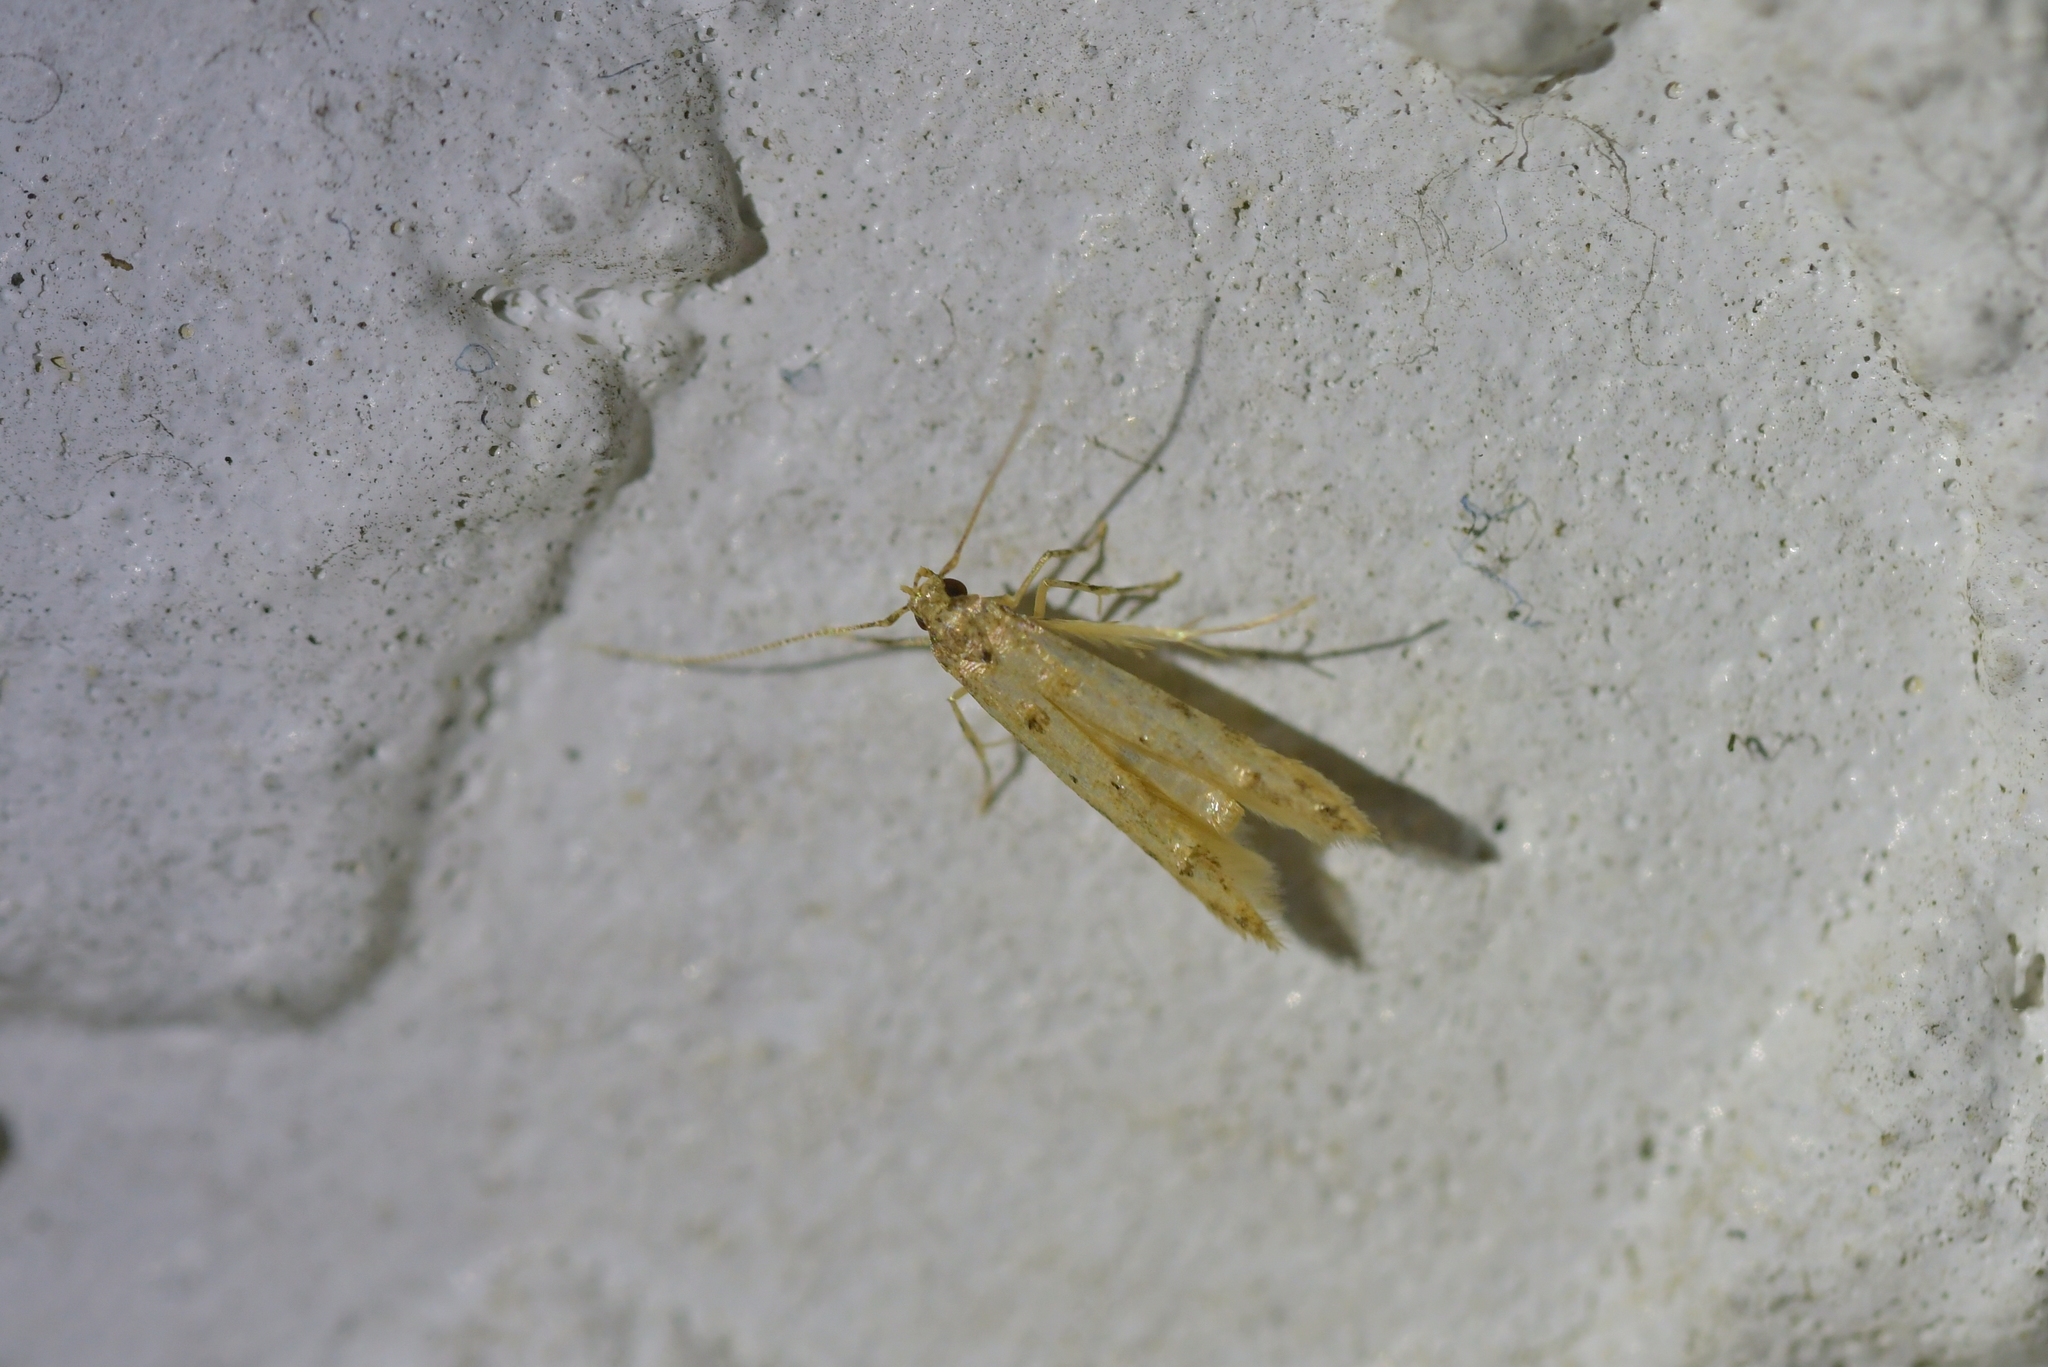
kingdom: Animalia
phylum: Arthropoda
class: Insecta
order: Lepidoptera
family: Elachistidae
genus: Microcolona
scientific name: Microcolona limodes
